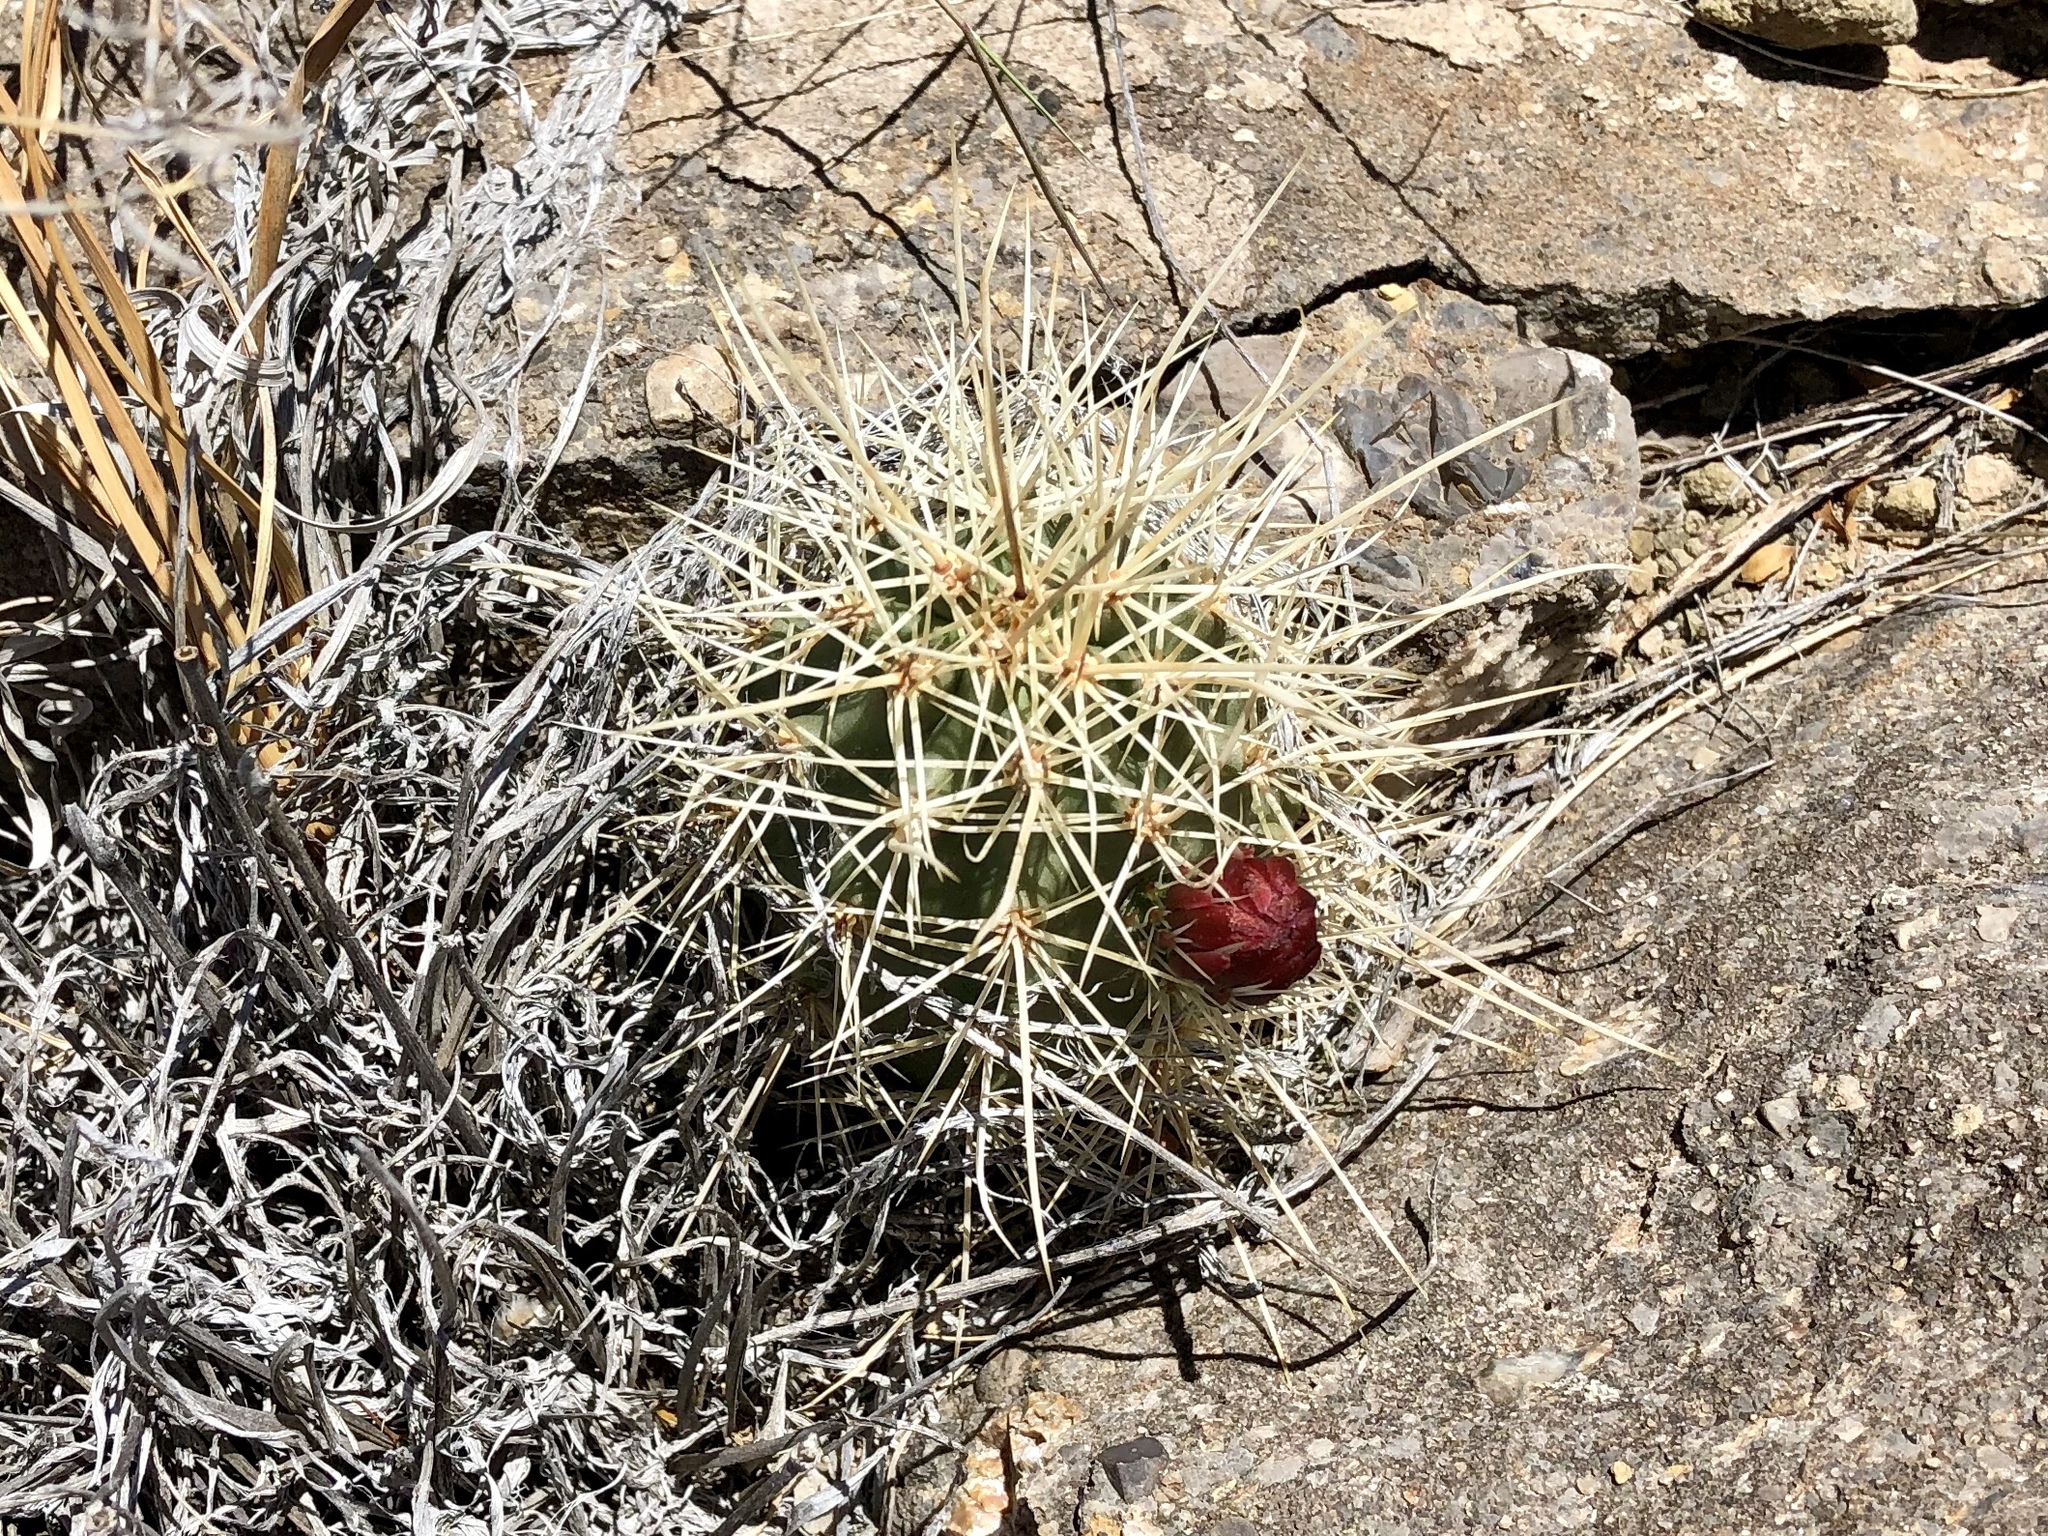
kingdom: Plantae
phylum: Tracheophyta
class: Magnoliopsida
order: Caryophyllales
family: Cactaceae
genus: Echinocereus
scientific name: Echinocereus coccineus
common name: Scarlet hedgehog cactus
